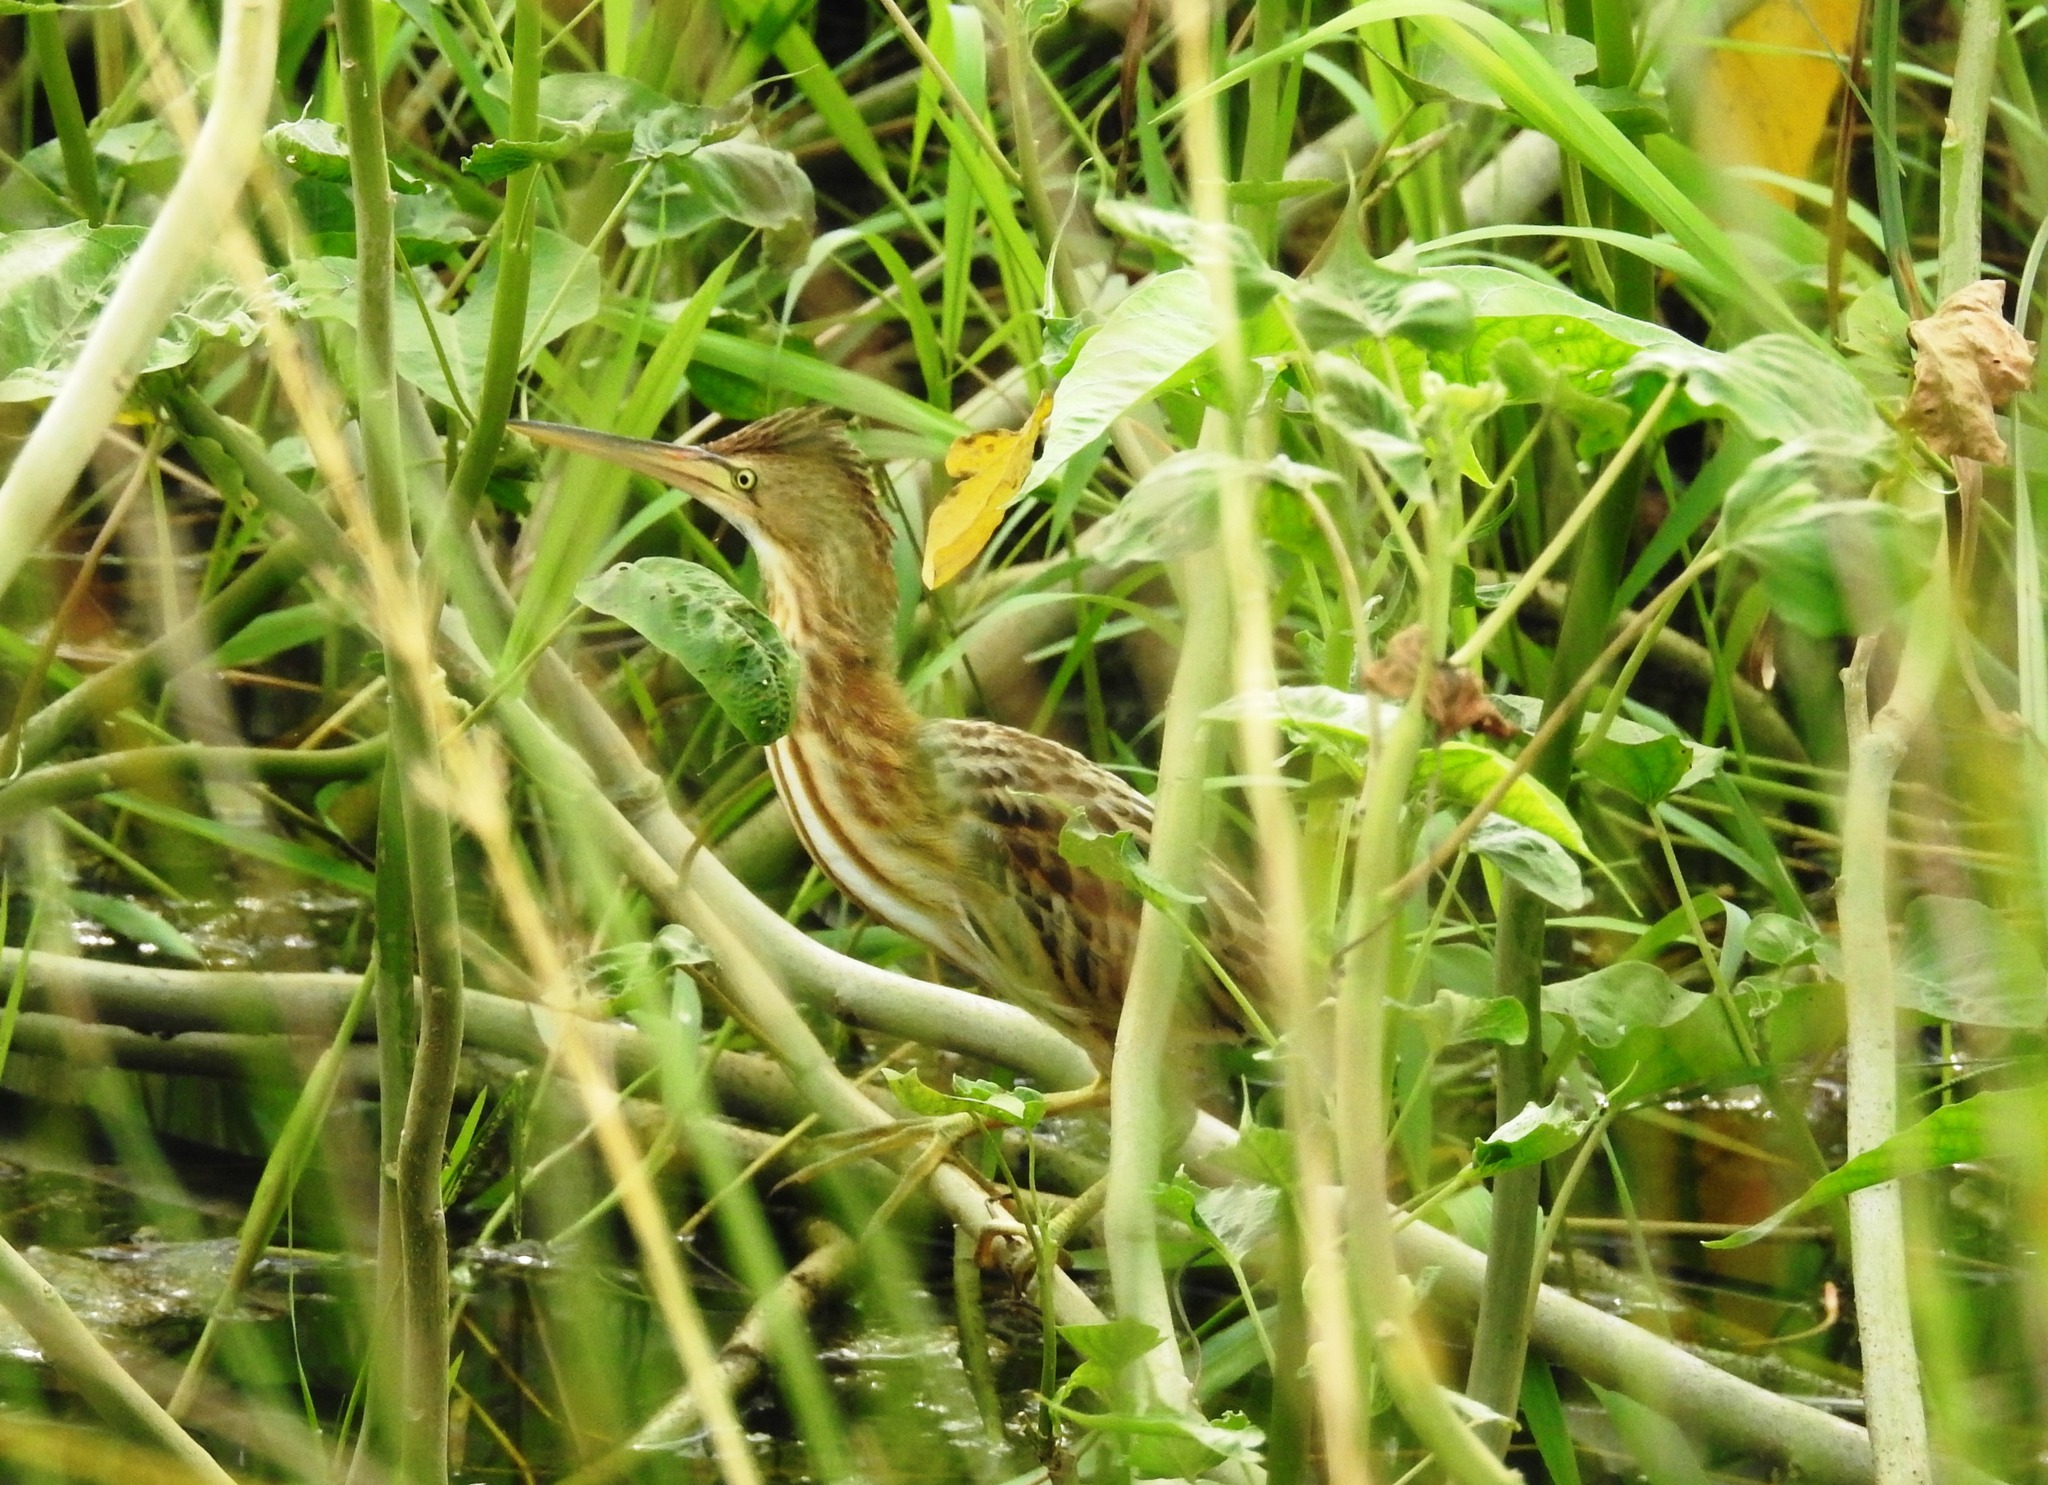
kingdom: Animalia
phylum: Chordata
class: Aves
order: Pelecaniformes
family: Ardeidae
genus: Ixobrychus
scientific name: Ixobrychus sinensis
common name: Yellow bittern
